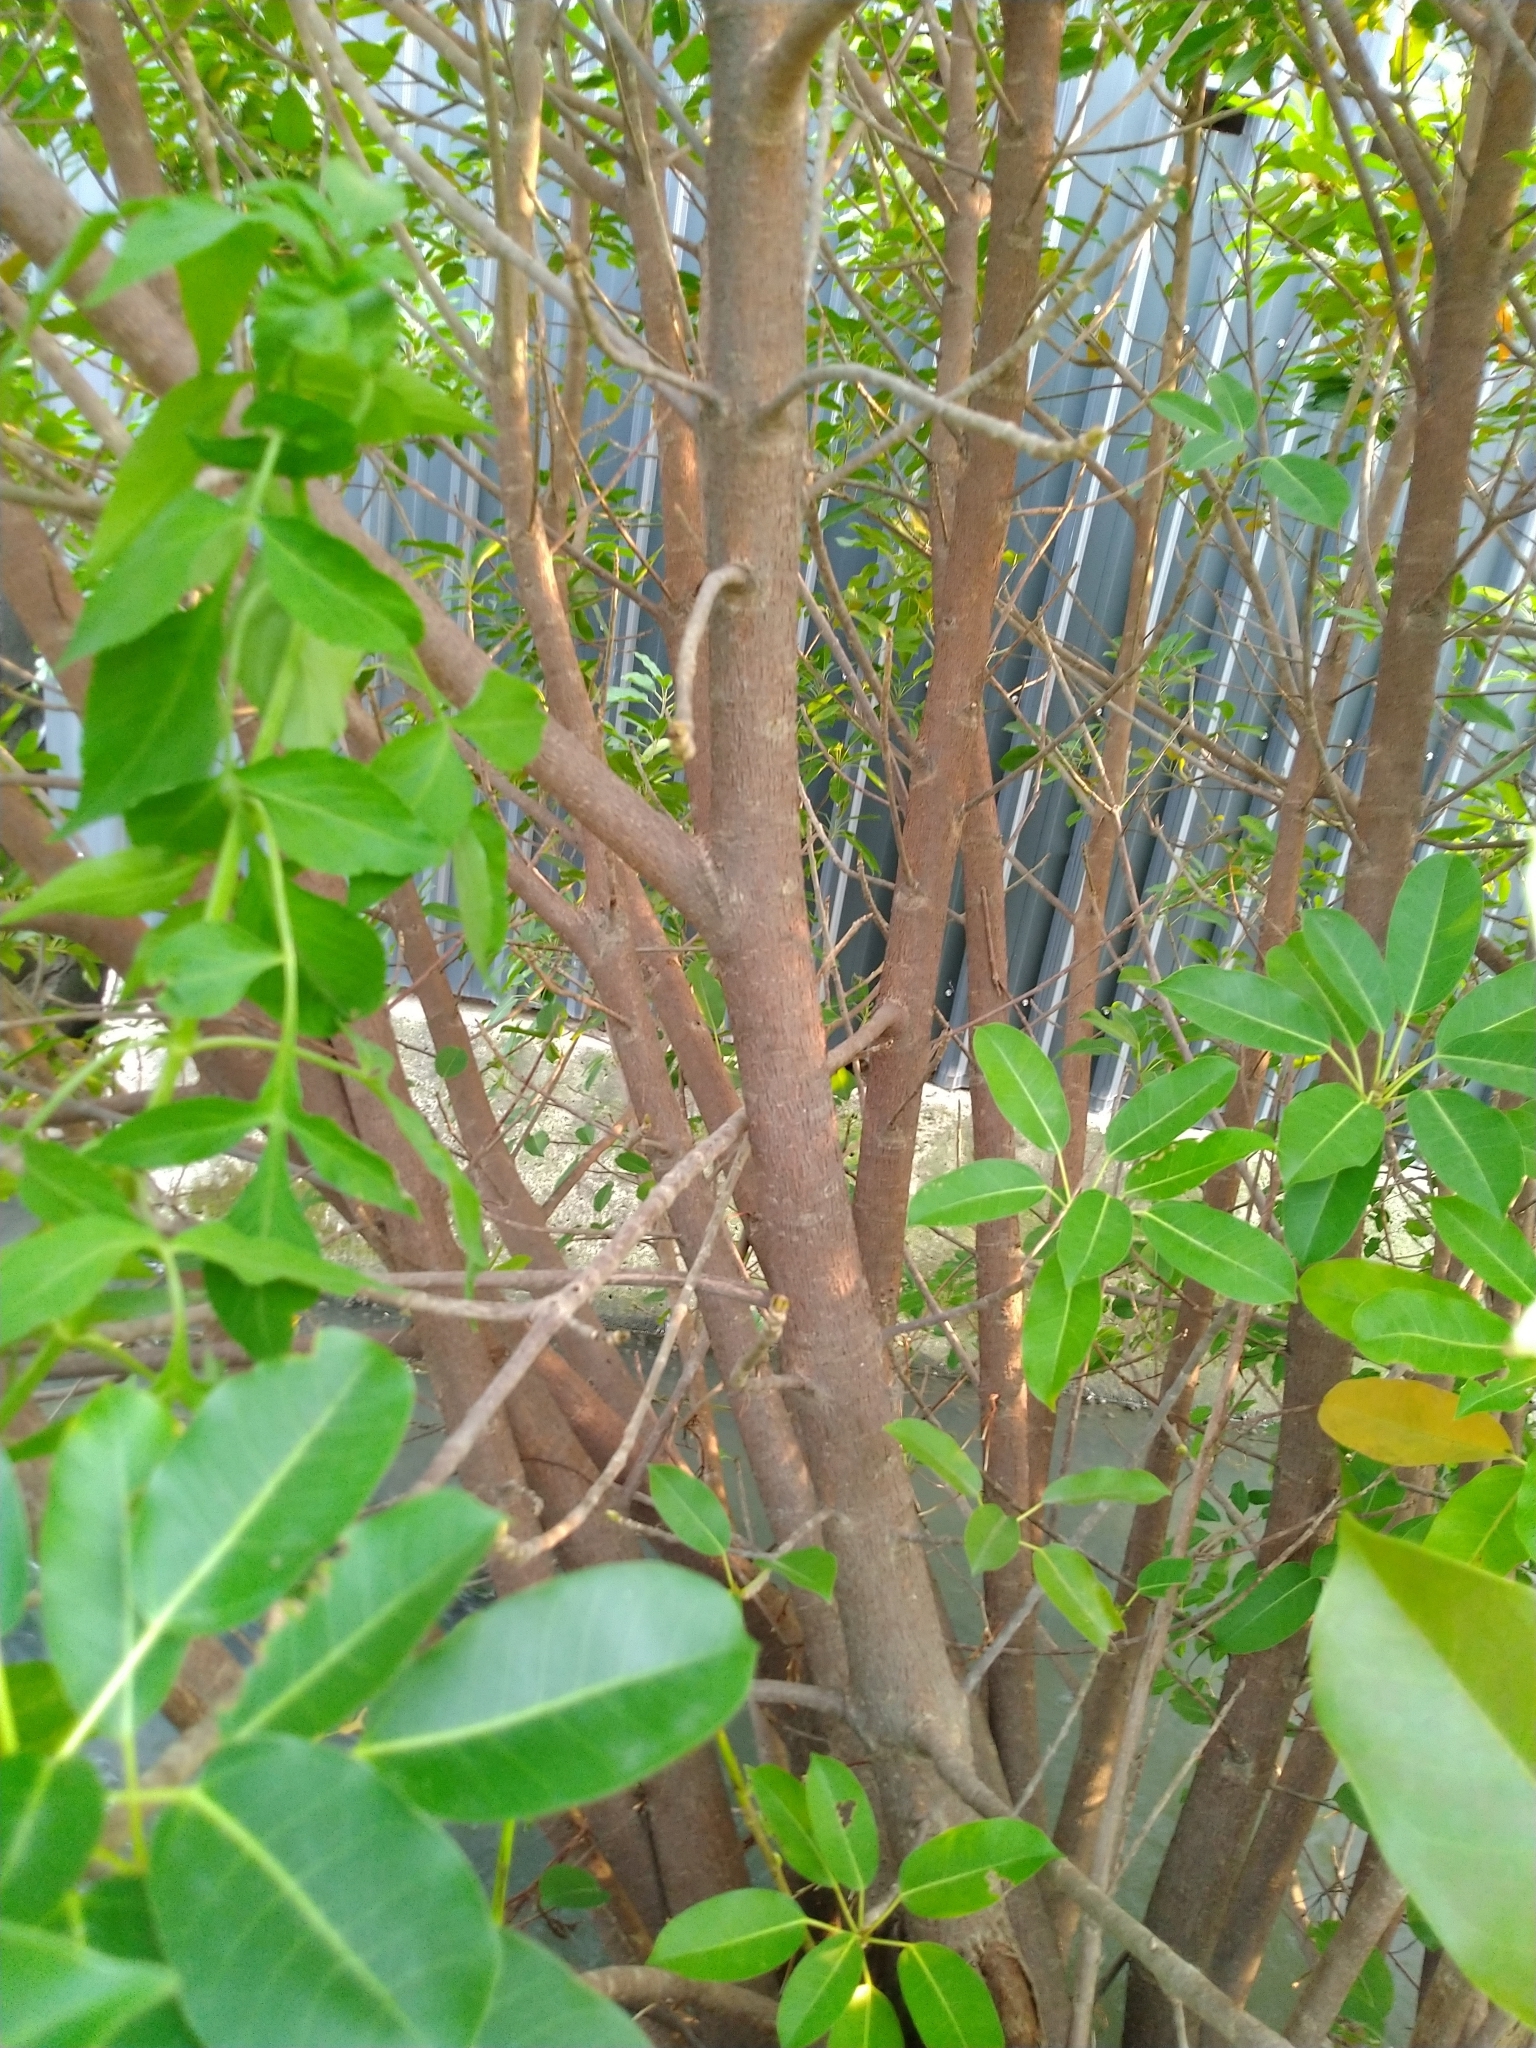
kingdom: Plantae
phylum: Tracheophyta
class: Magnoliopsida
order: Rosales
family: Moraceae
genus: Ficus
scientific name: Ficus subpisocarpa
